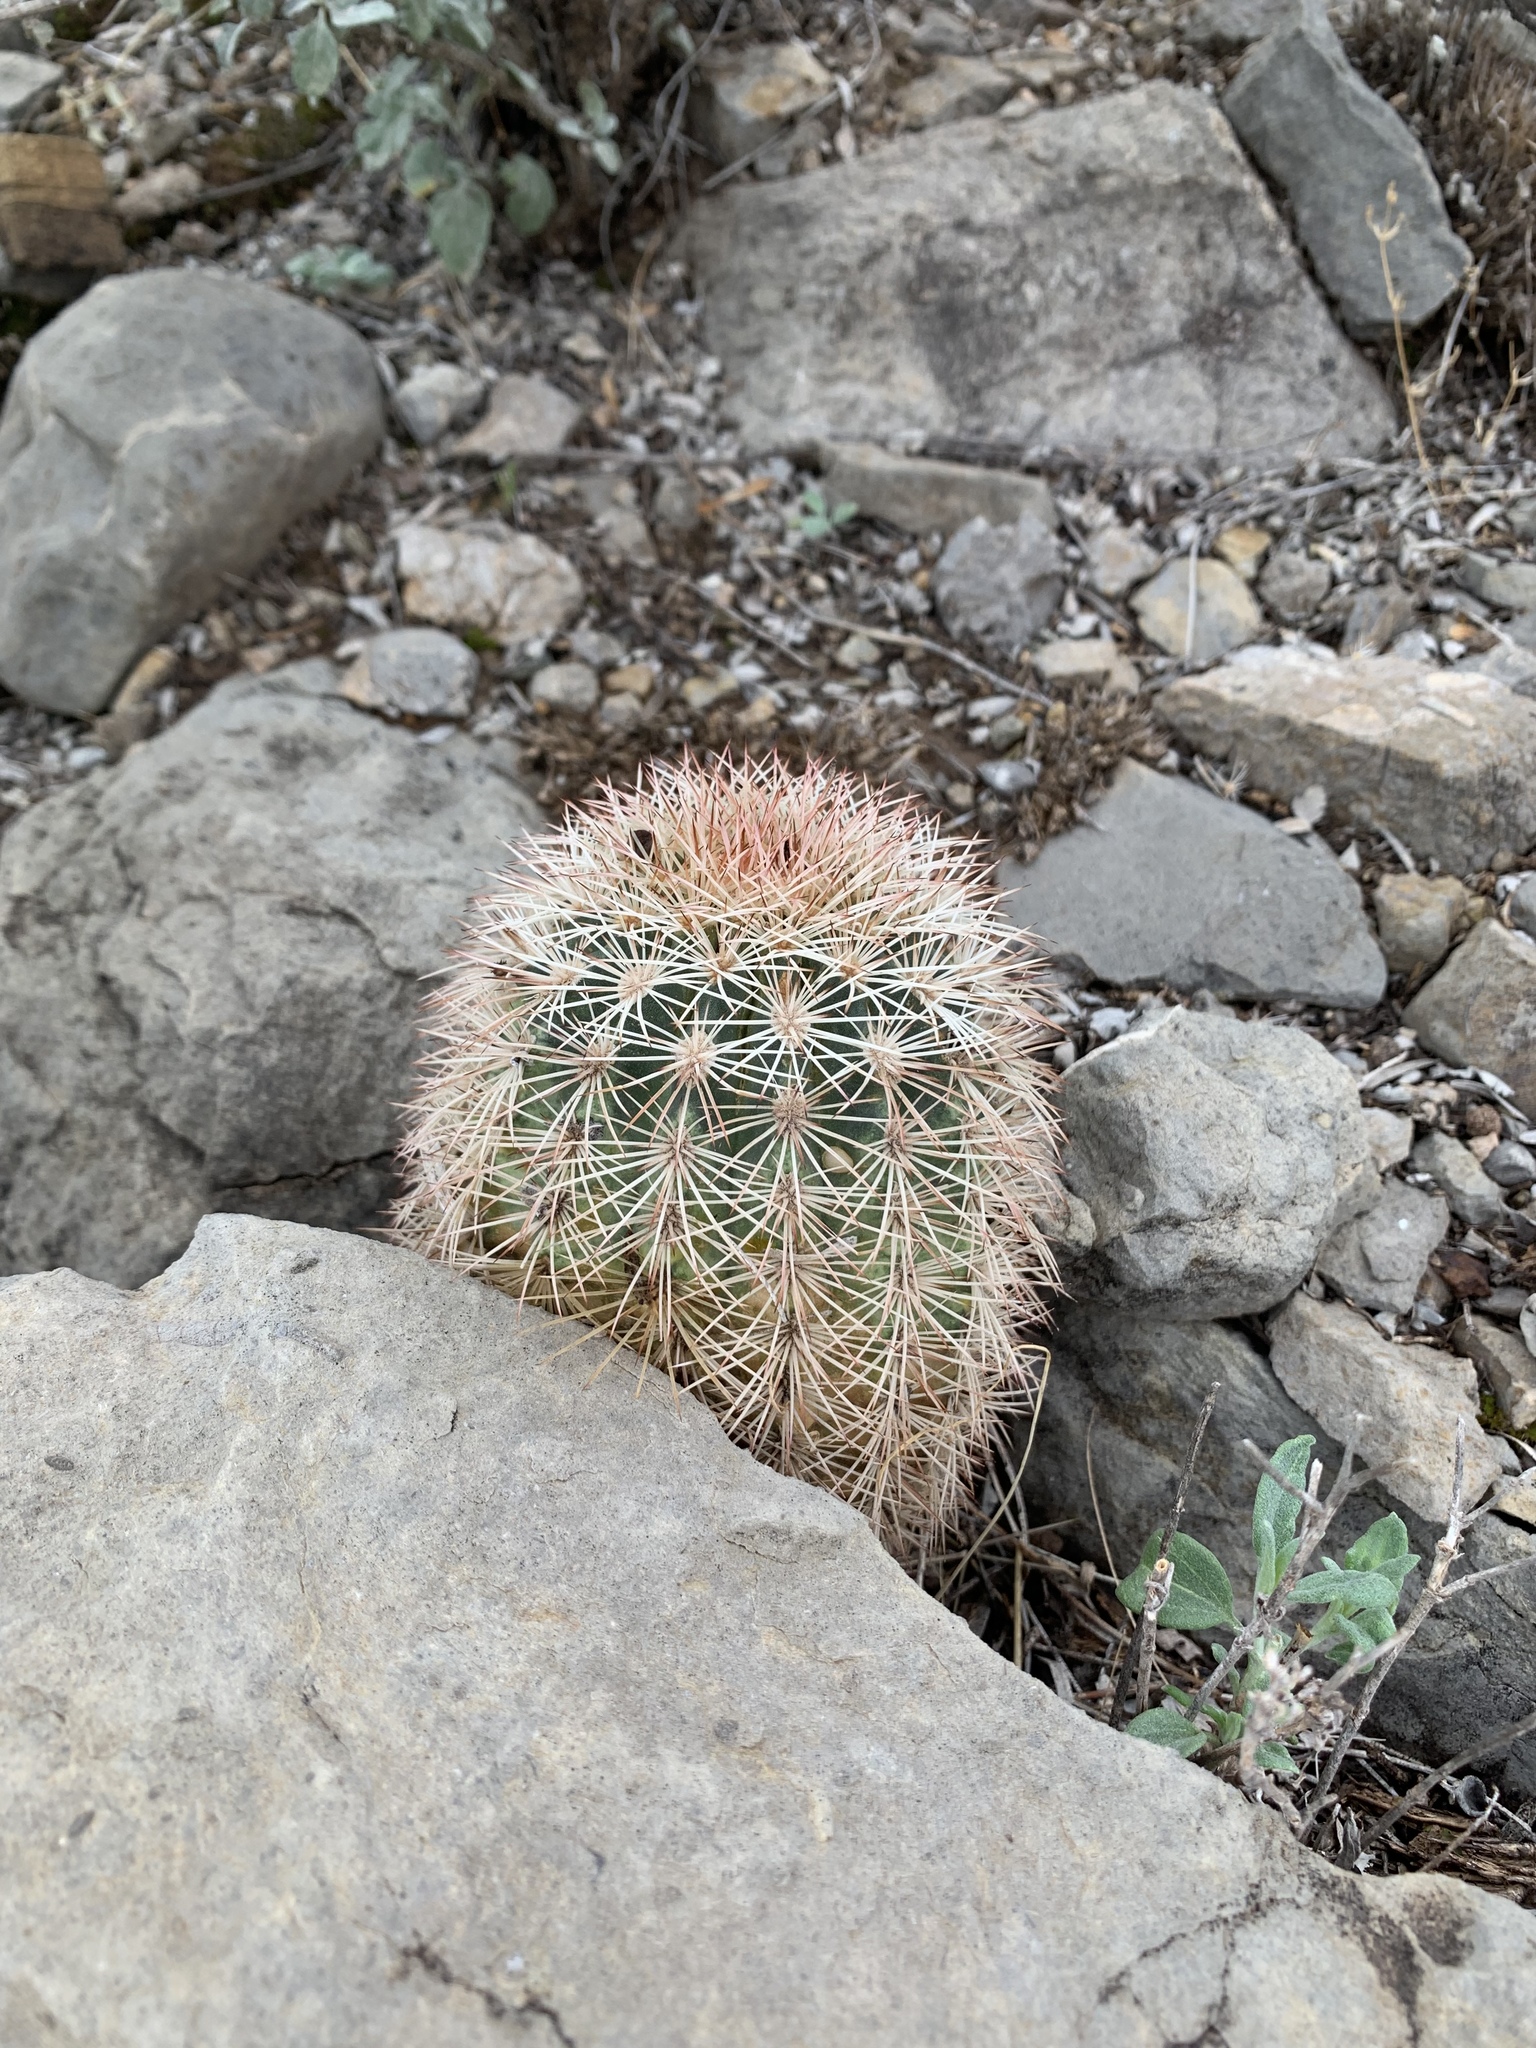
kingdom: Plantae
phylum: Tracheophyta
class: Magnoliopsida
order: Caryophyllales
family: Cactaceae
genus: Echinocereus
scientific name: Echinocereus dasyacanthus
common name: Spiny hedgehog cactus
